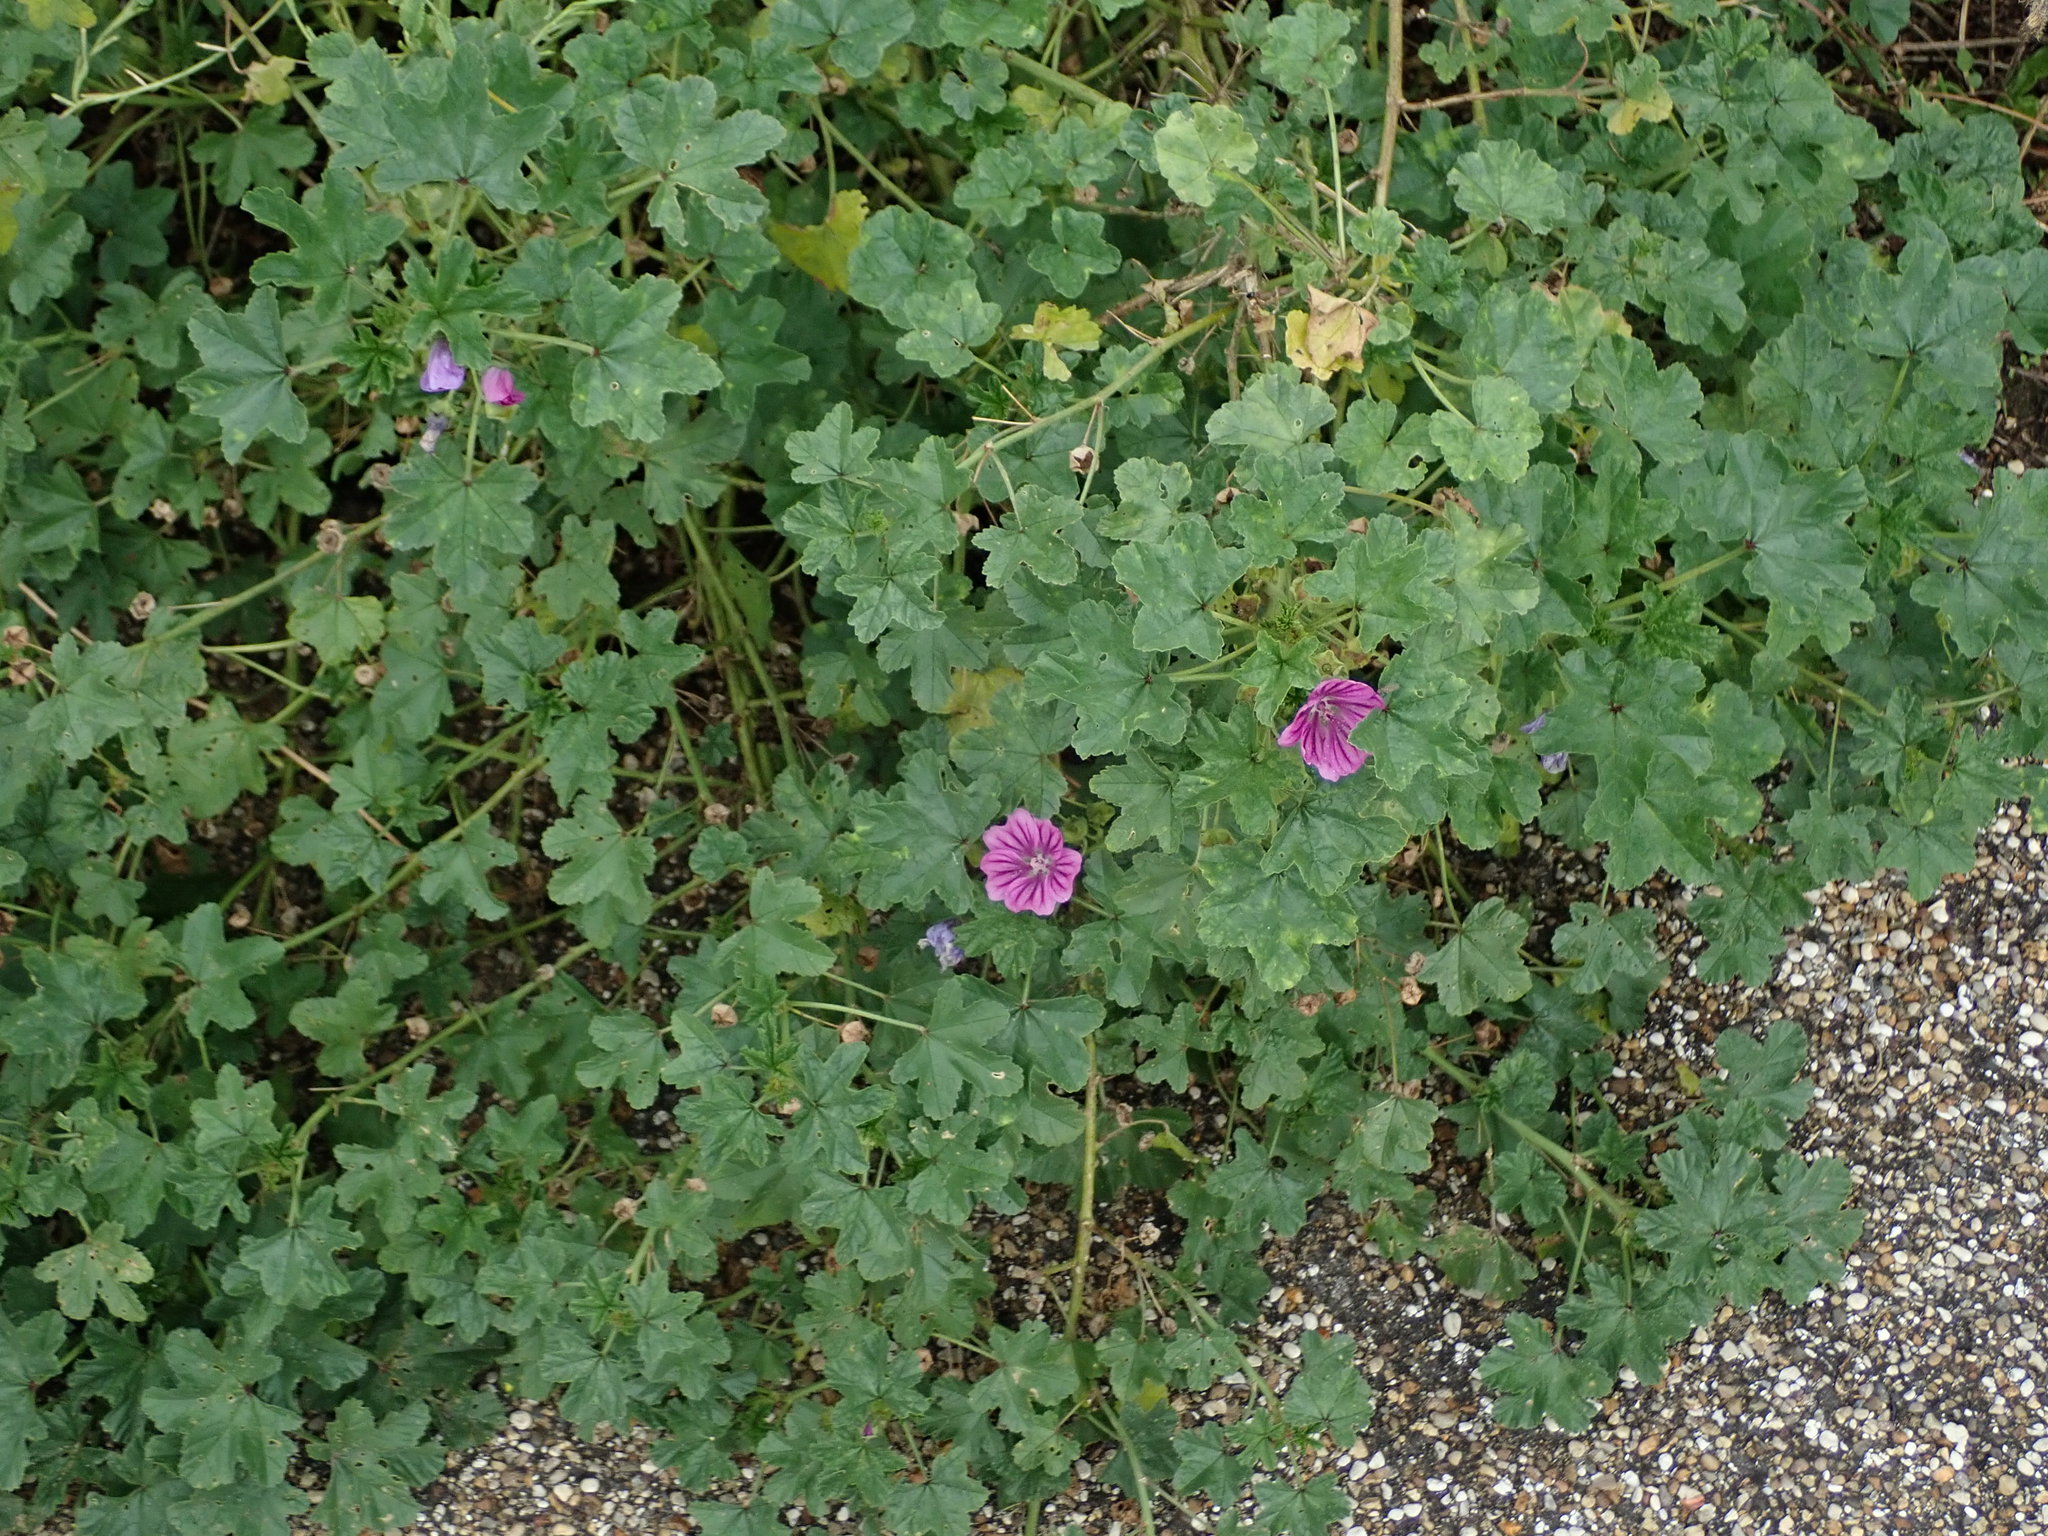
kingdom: Plantae
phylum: Tracheophyta
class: Magnoliopsida
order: Malvales
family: Malvaceae
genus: Malva
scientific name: Malva sylvestris
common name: Common mallow
